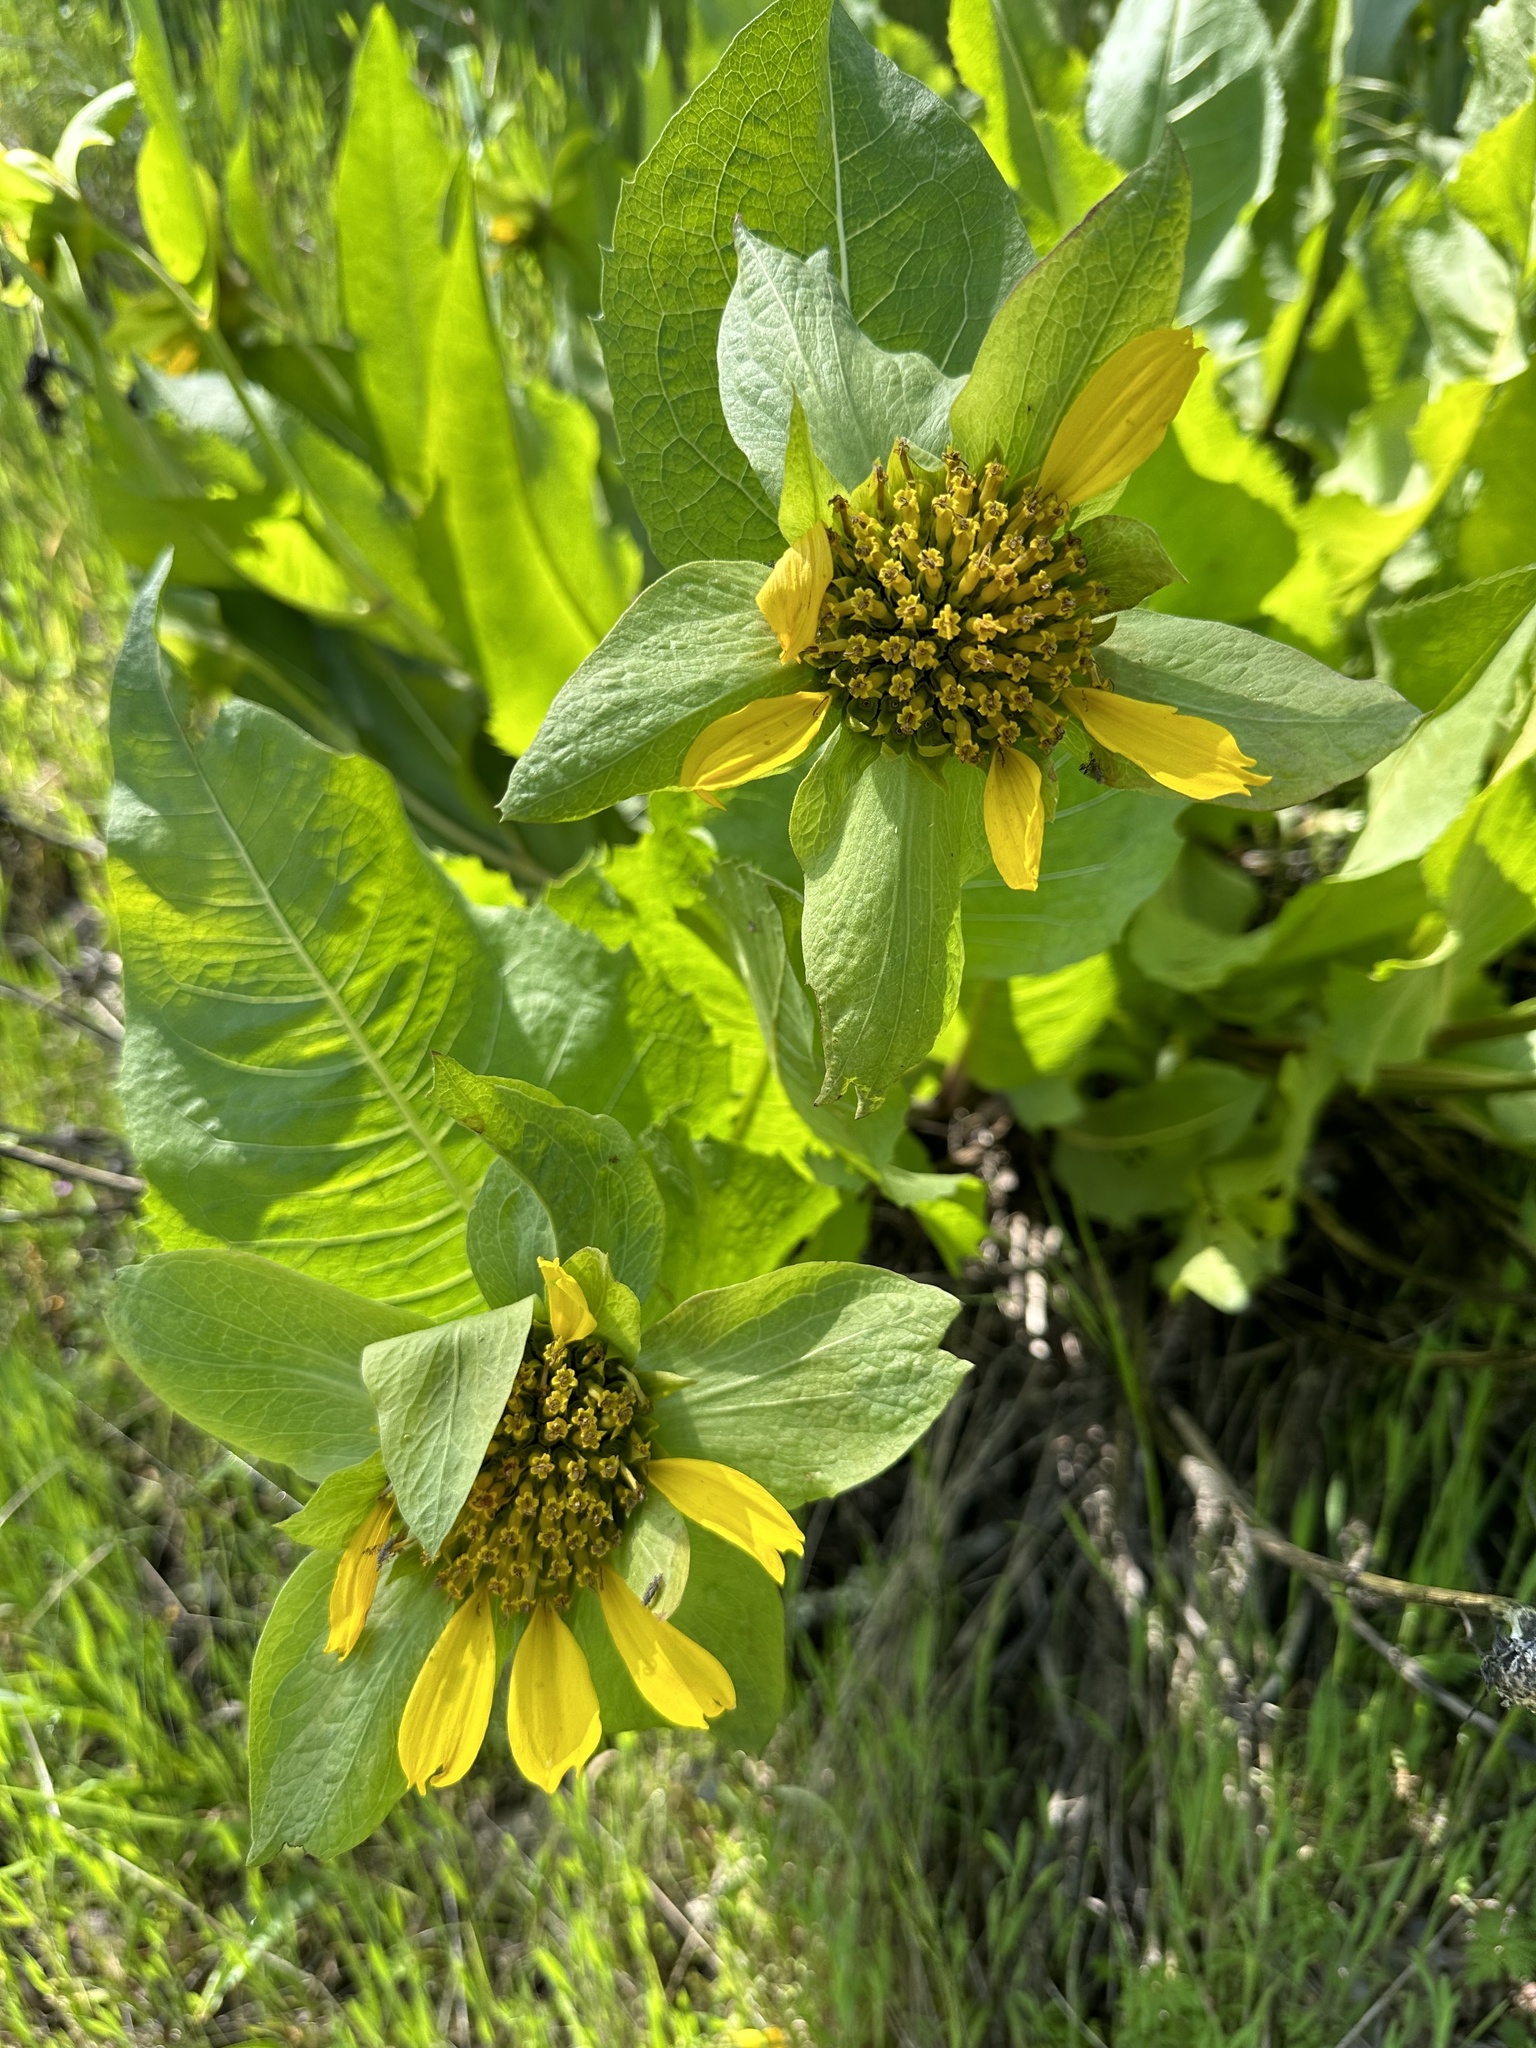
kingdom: Plantae
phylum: Tracheophyta
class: Magnoliopsida
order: Asterales
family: Asteraceae
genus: Wyethia
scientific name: Wyethia glabra
